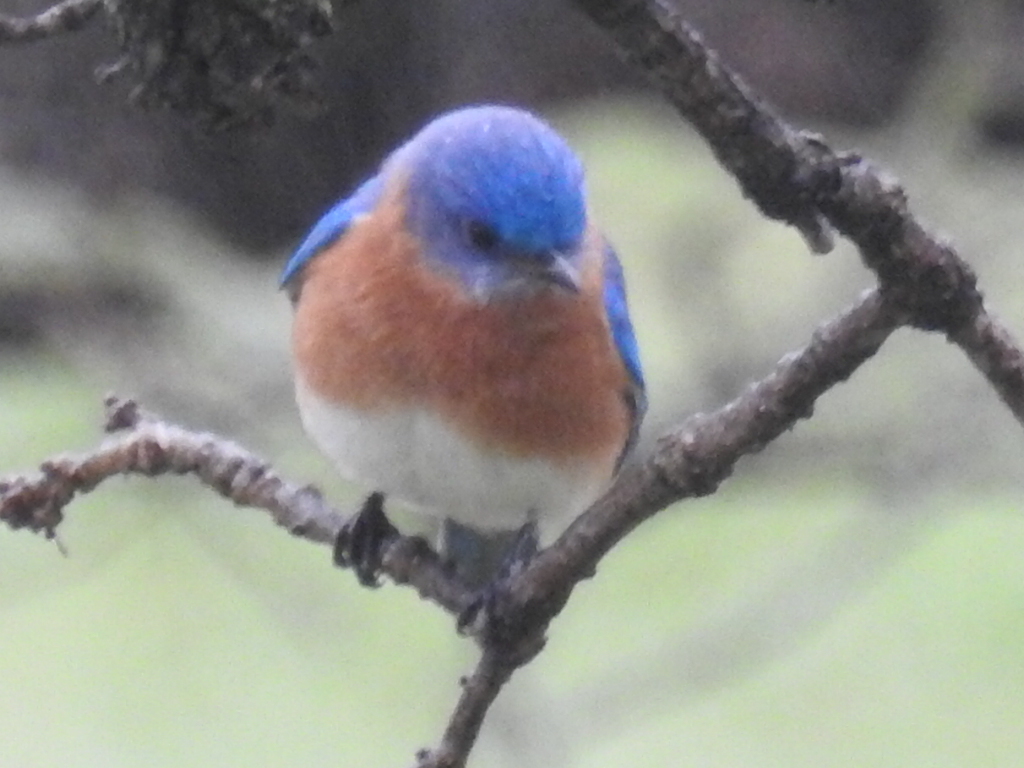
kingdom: Animalia
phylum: Chordata
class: Aves
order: Passeriformes
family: Turdidae
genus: Sialia
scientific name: Sialia sialis
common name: Eastern bluebird
